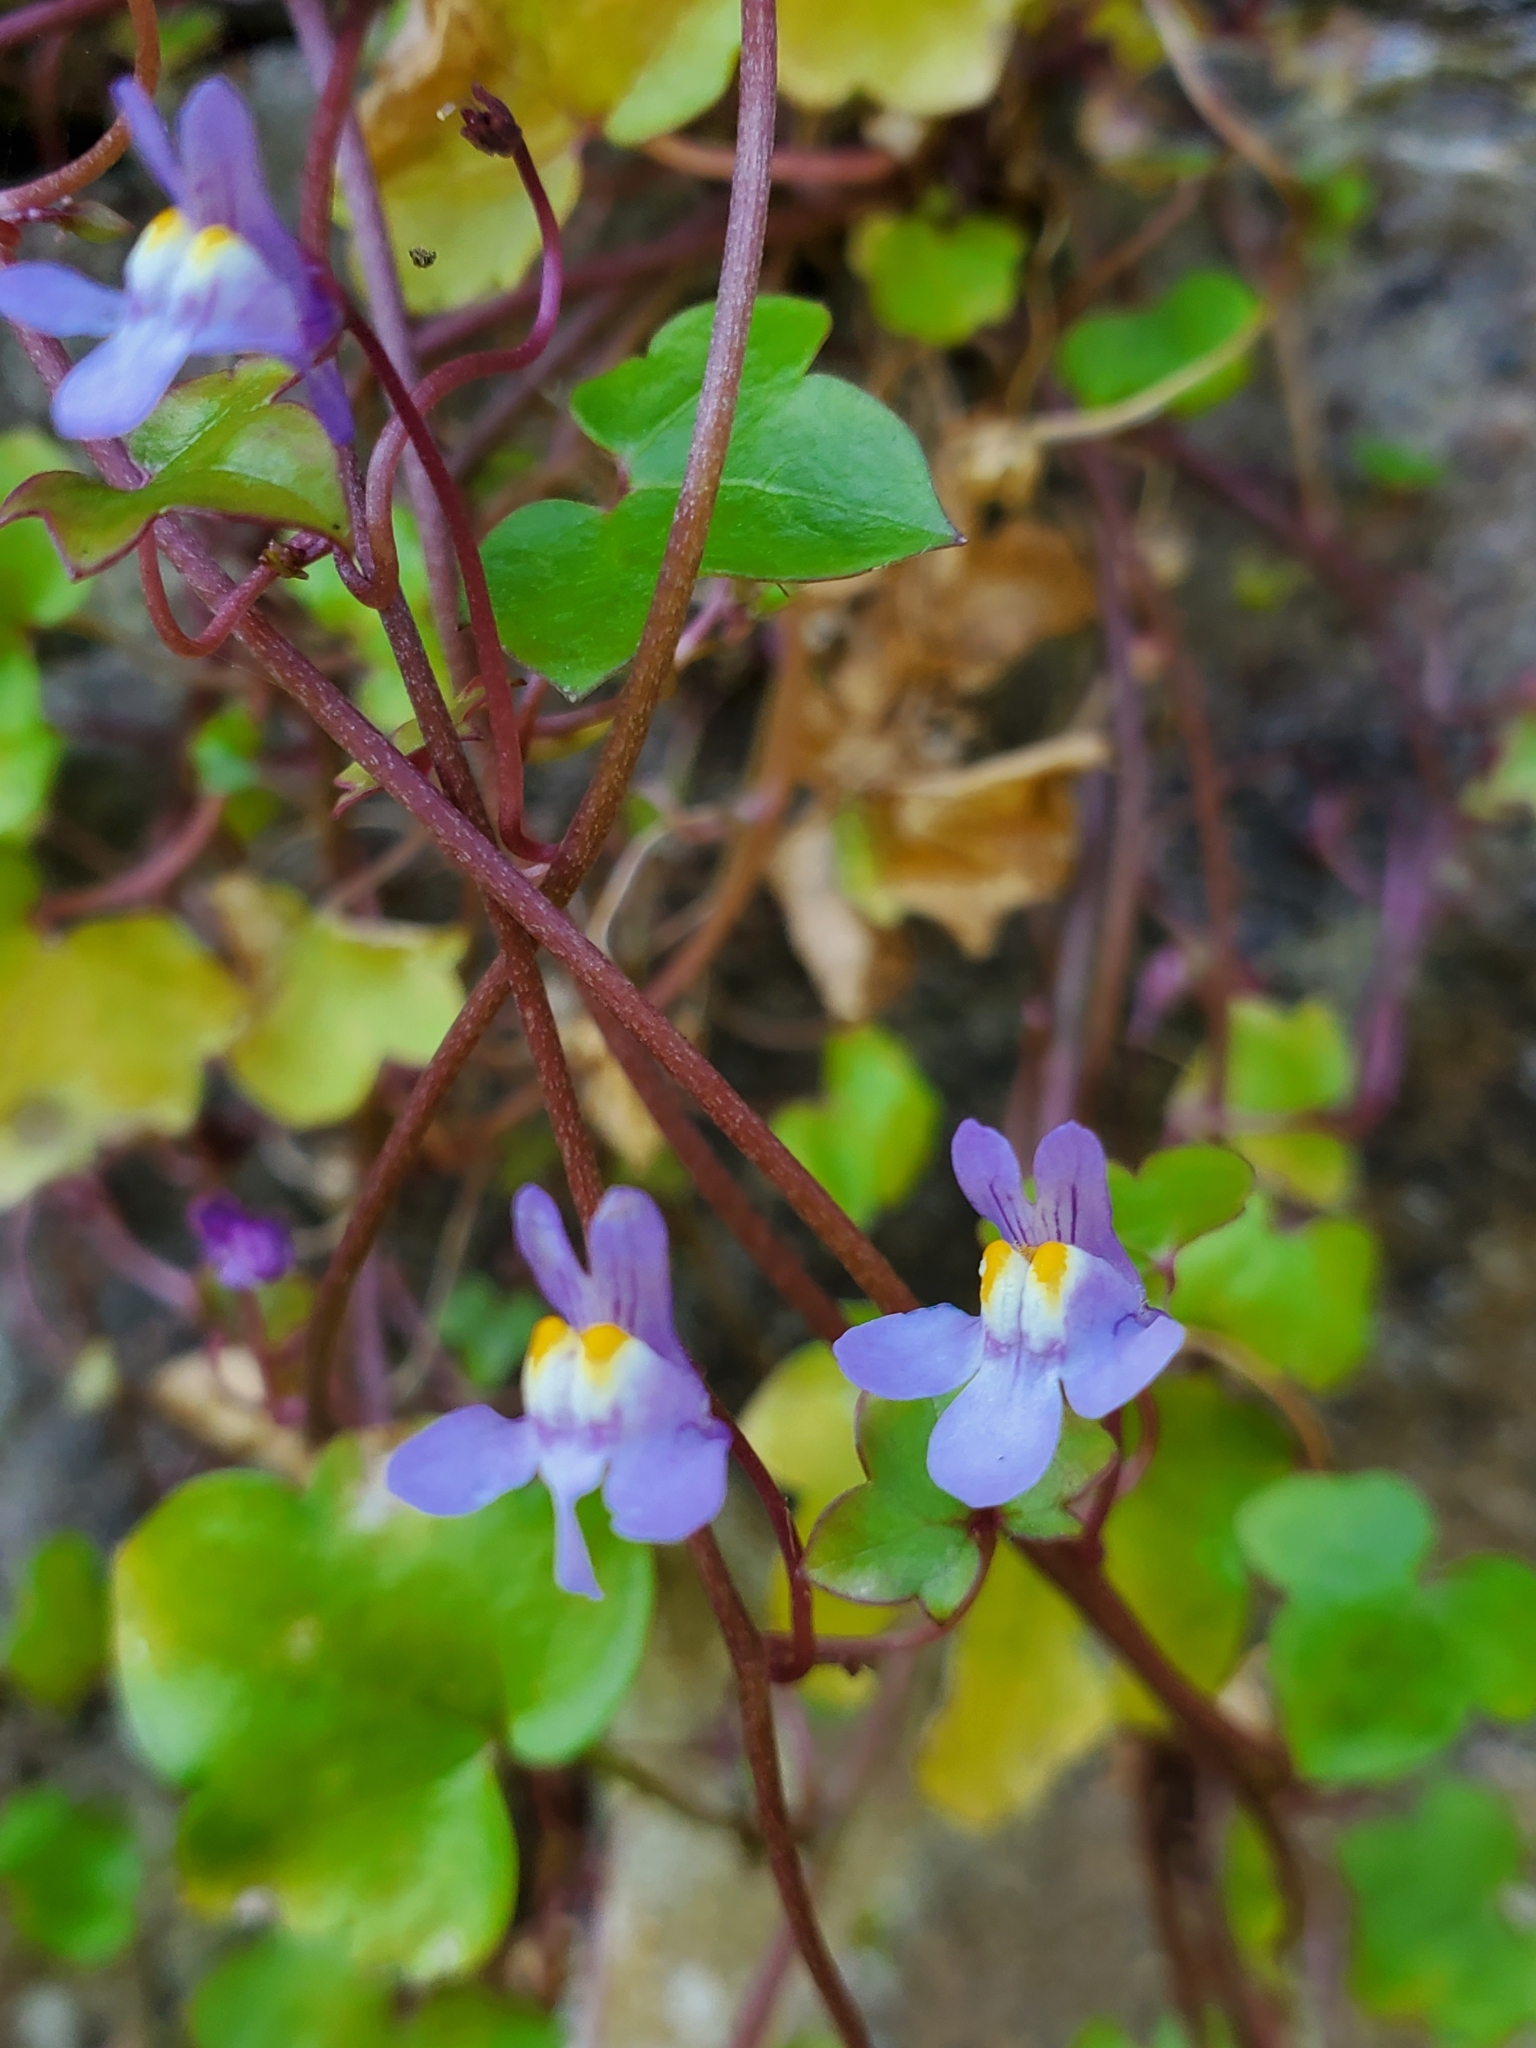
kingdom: Plantae
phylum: Tracheophyta
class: Magnoliopsida
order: Lamiales
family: Plantaginaceae
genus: Cymbalaria
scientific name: Cymbalaria muralis
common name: Ivy-leaved toadflax
